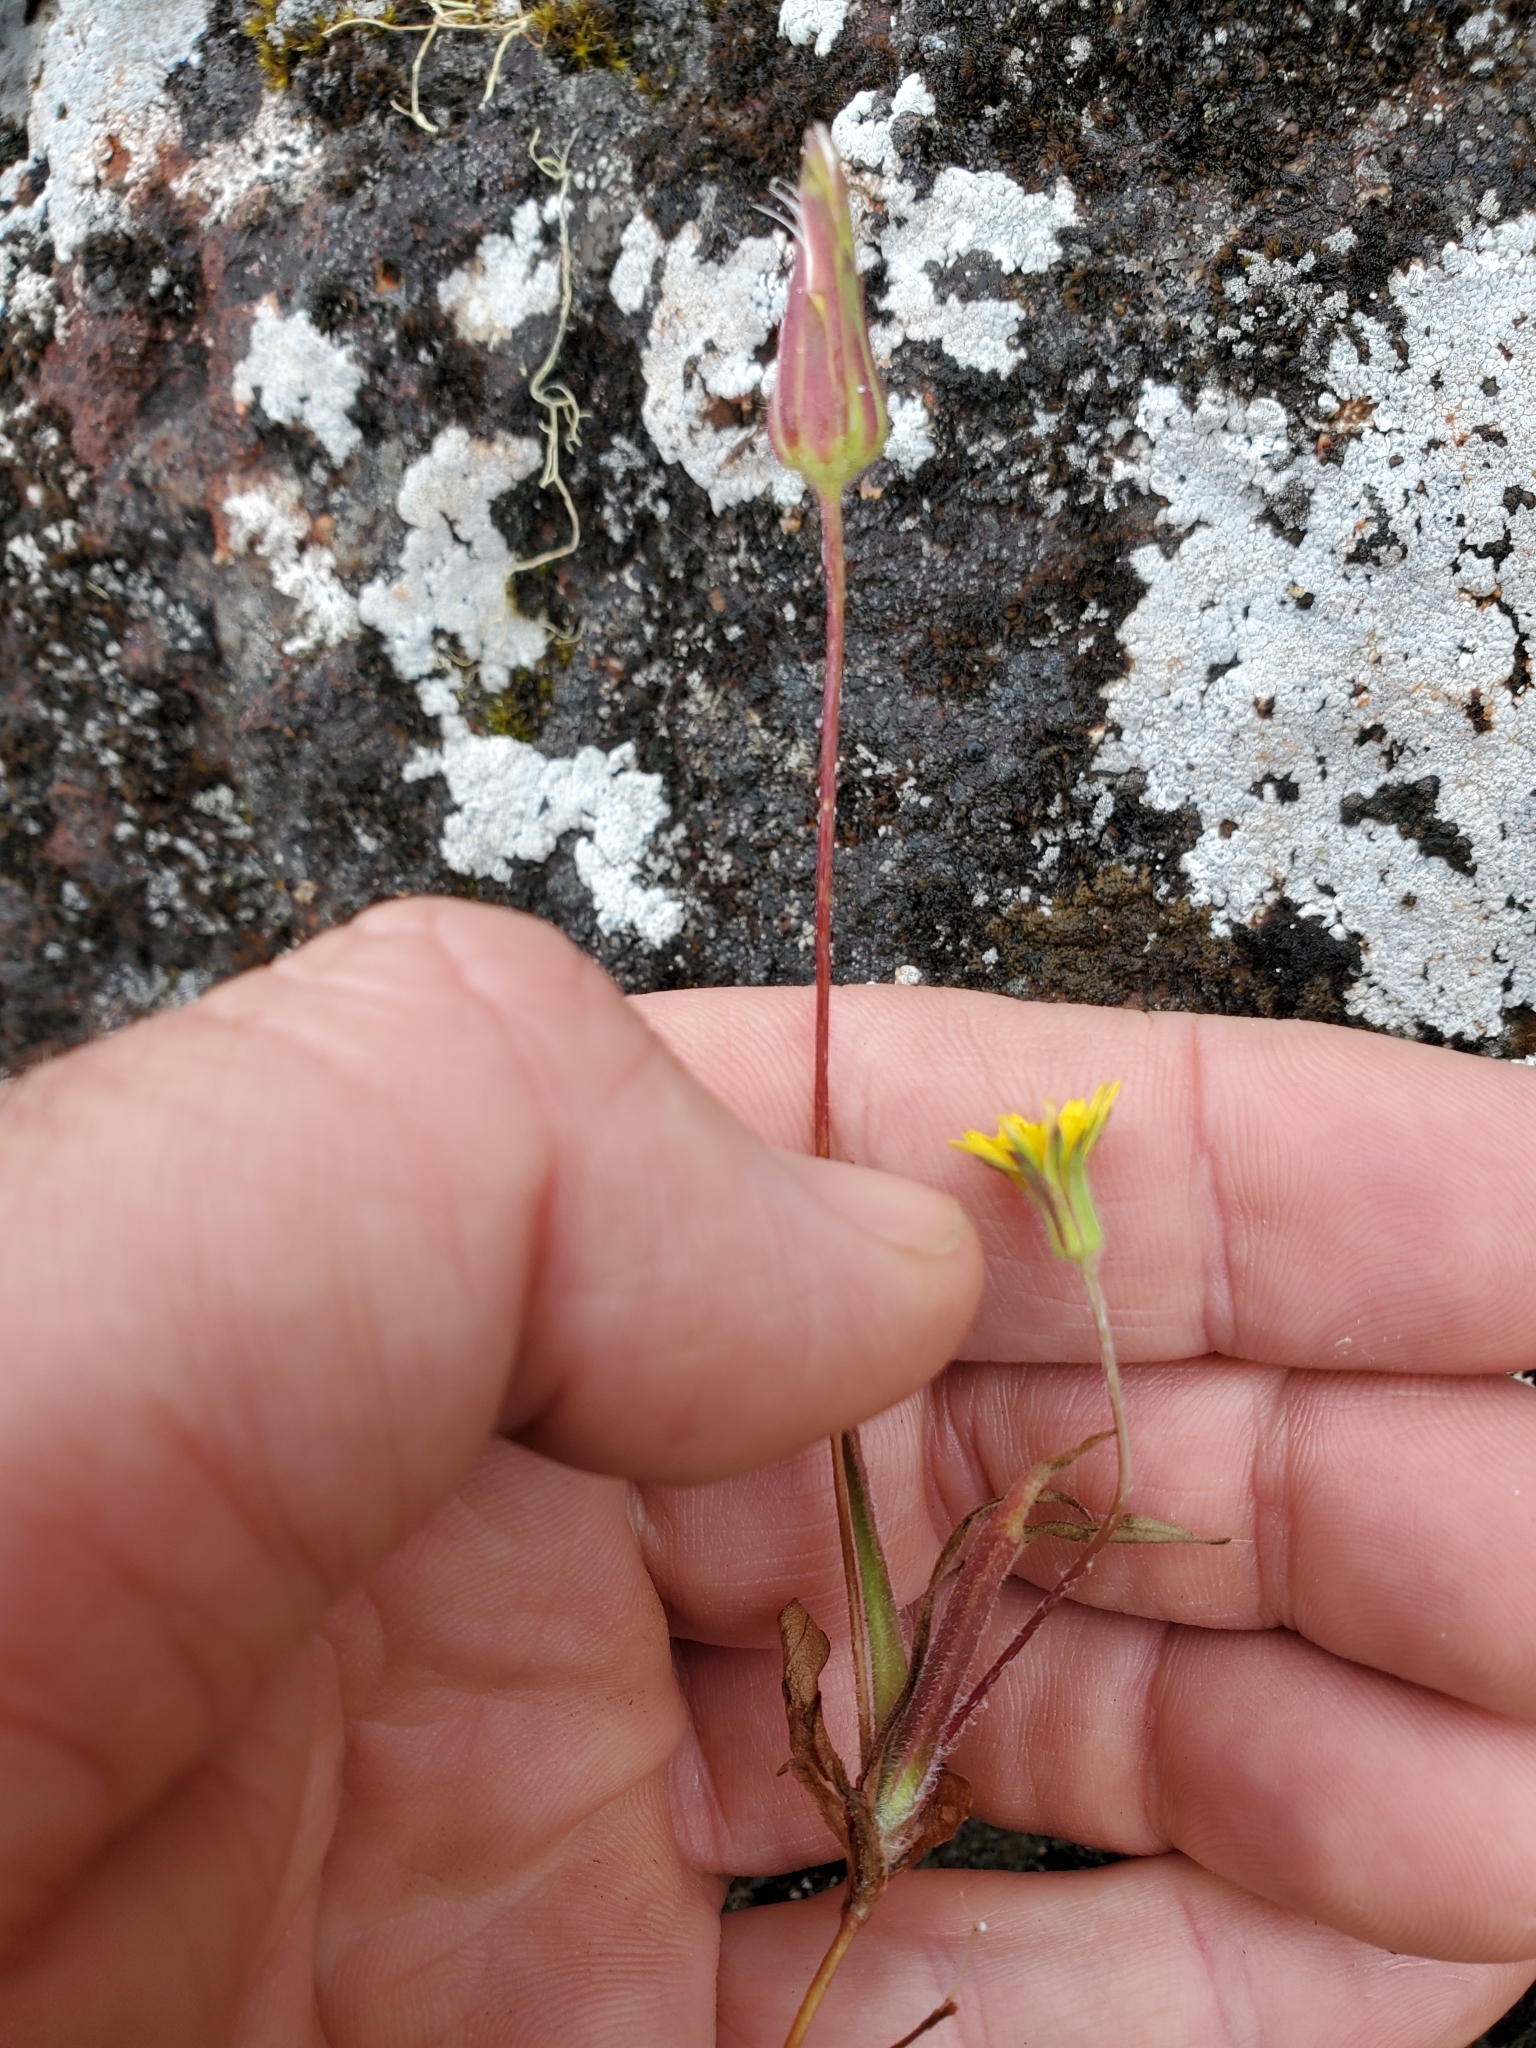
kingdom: Plantae
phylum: Tracheophyta
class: Magnoliopsida
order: Asterales
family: Asteraceae
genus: Agoseris
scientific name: Agoseris heterophylla
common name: Annual agoseris
